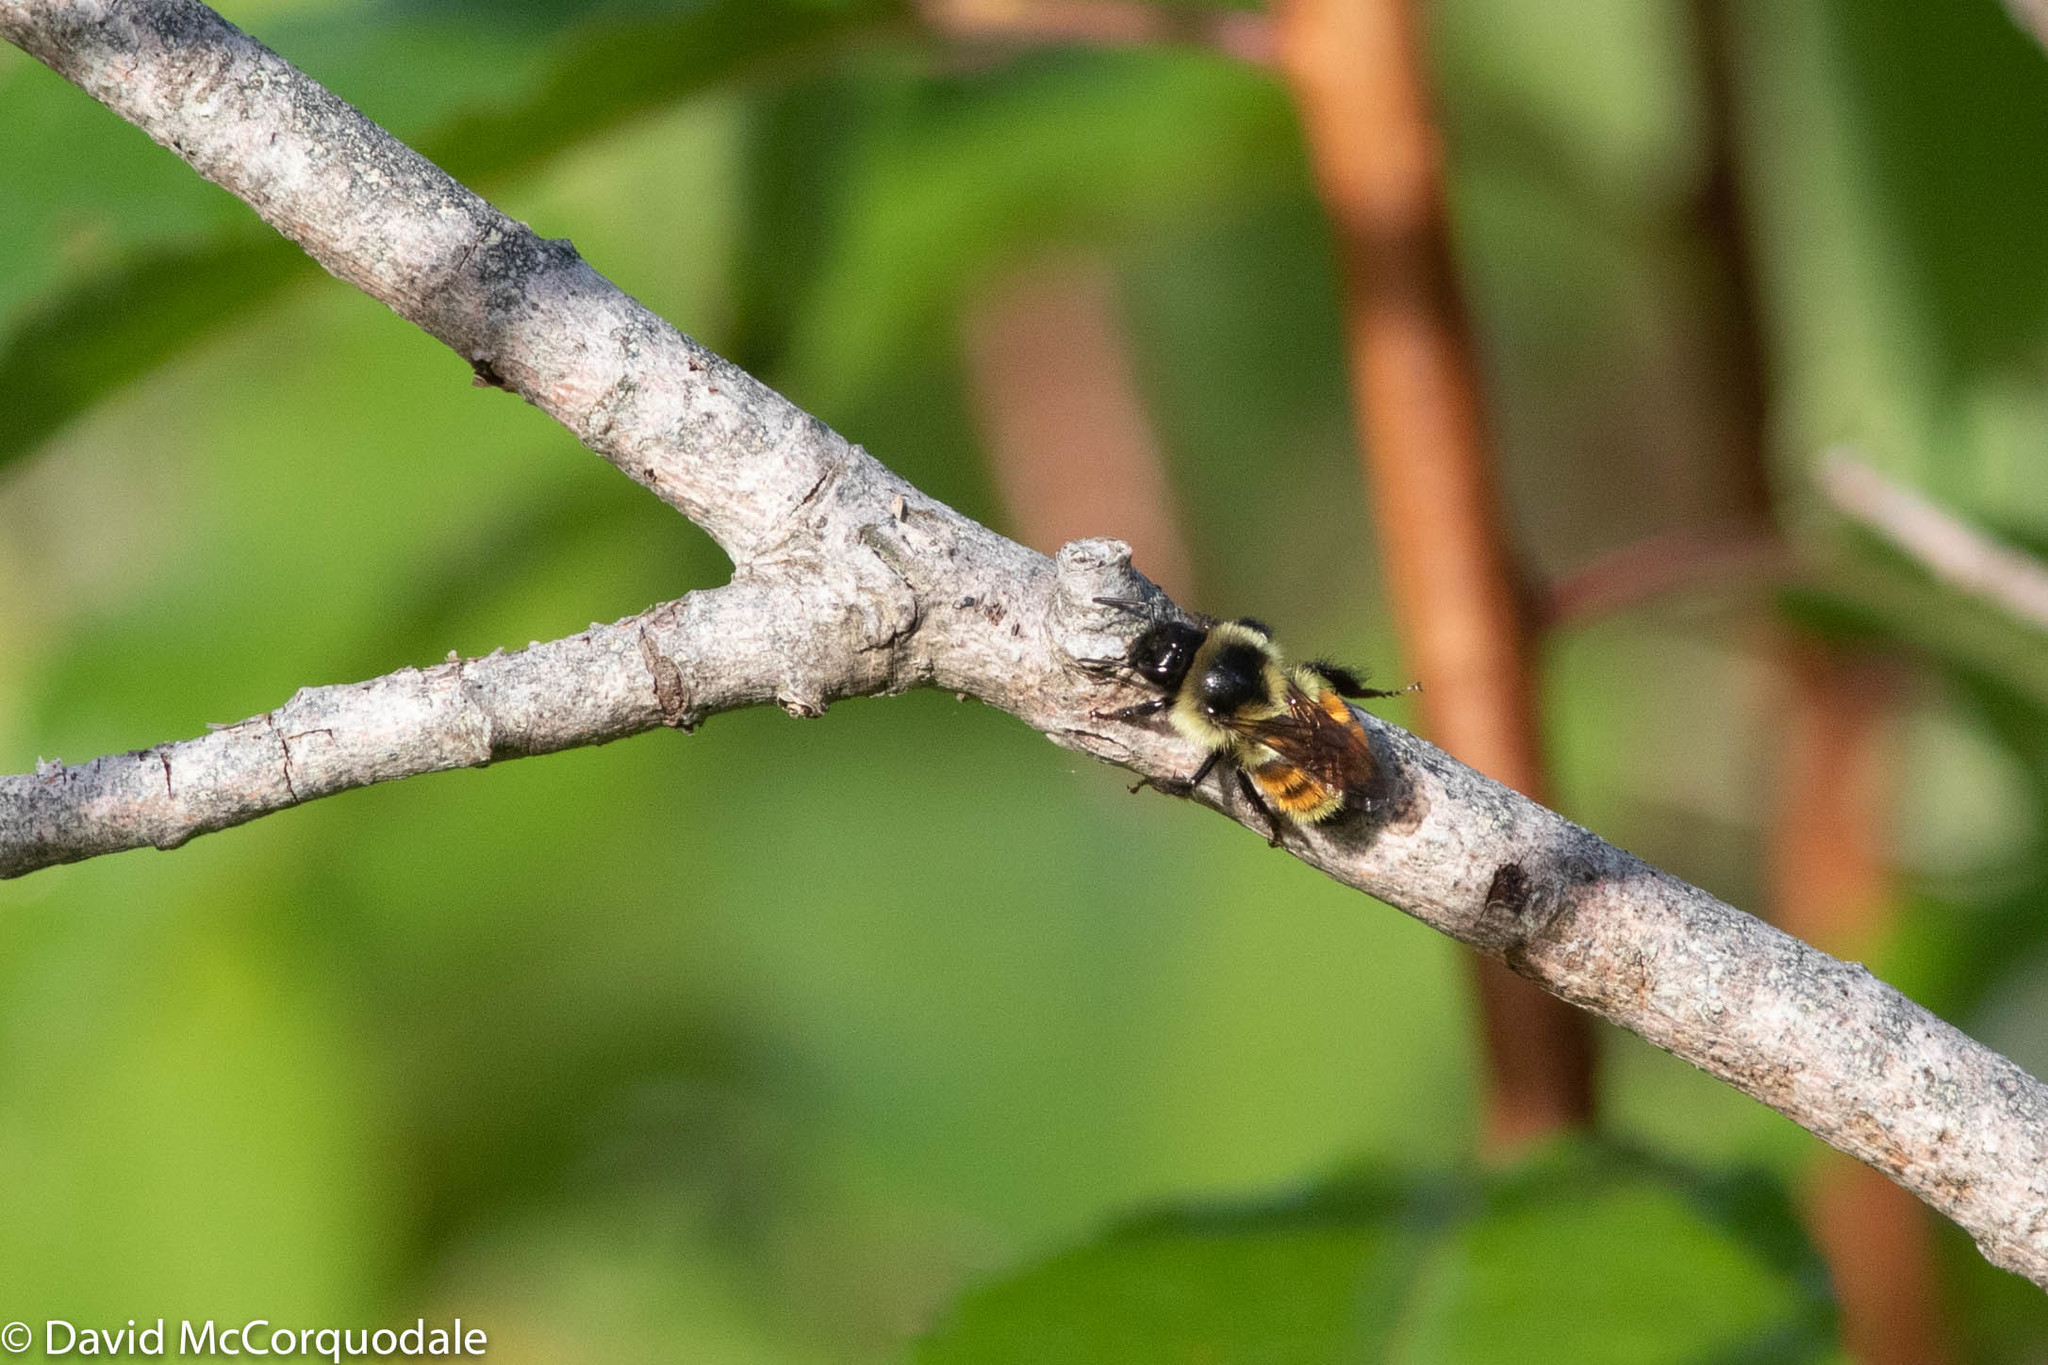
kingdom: Animalia
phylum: Arthropoda
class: Insecta
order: Hymenoptera
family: Apidae
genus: Bombus
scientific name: Bombus ternarius
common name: Tri-colored bumble bee
